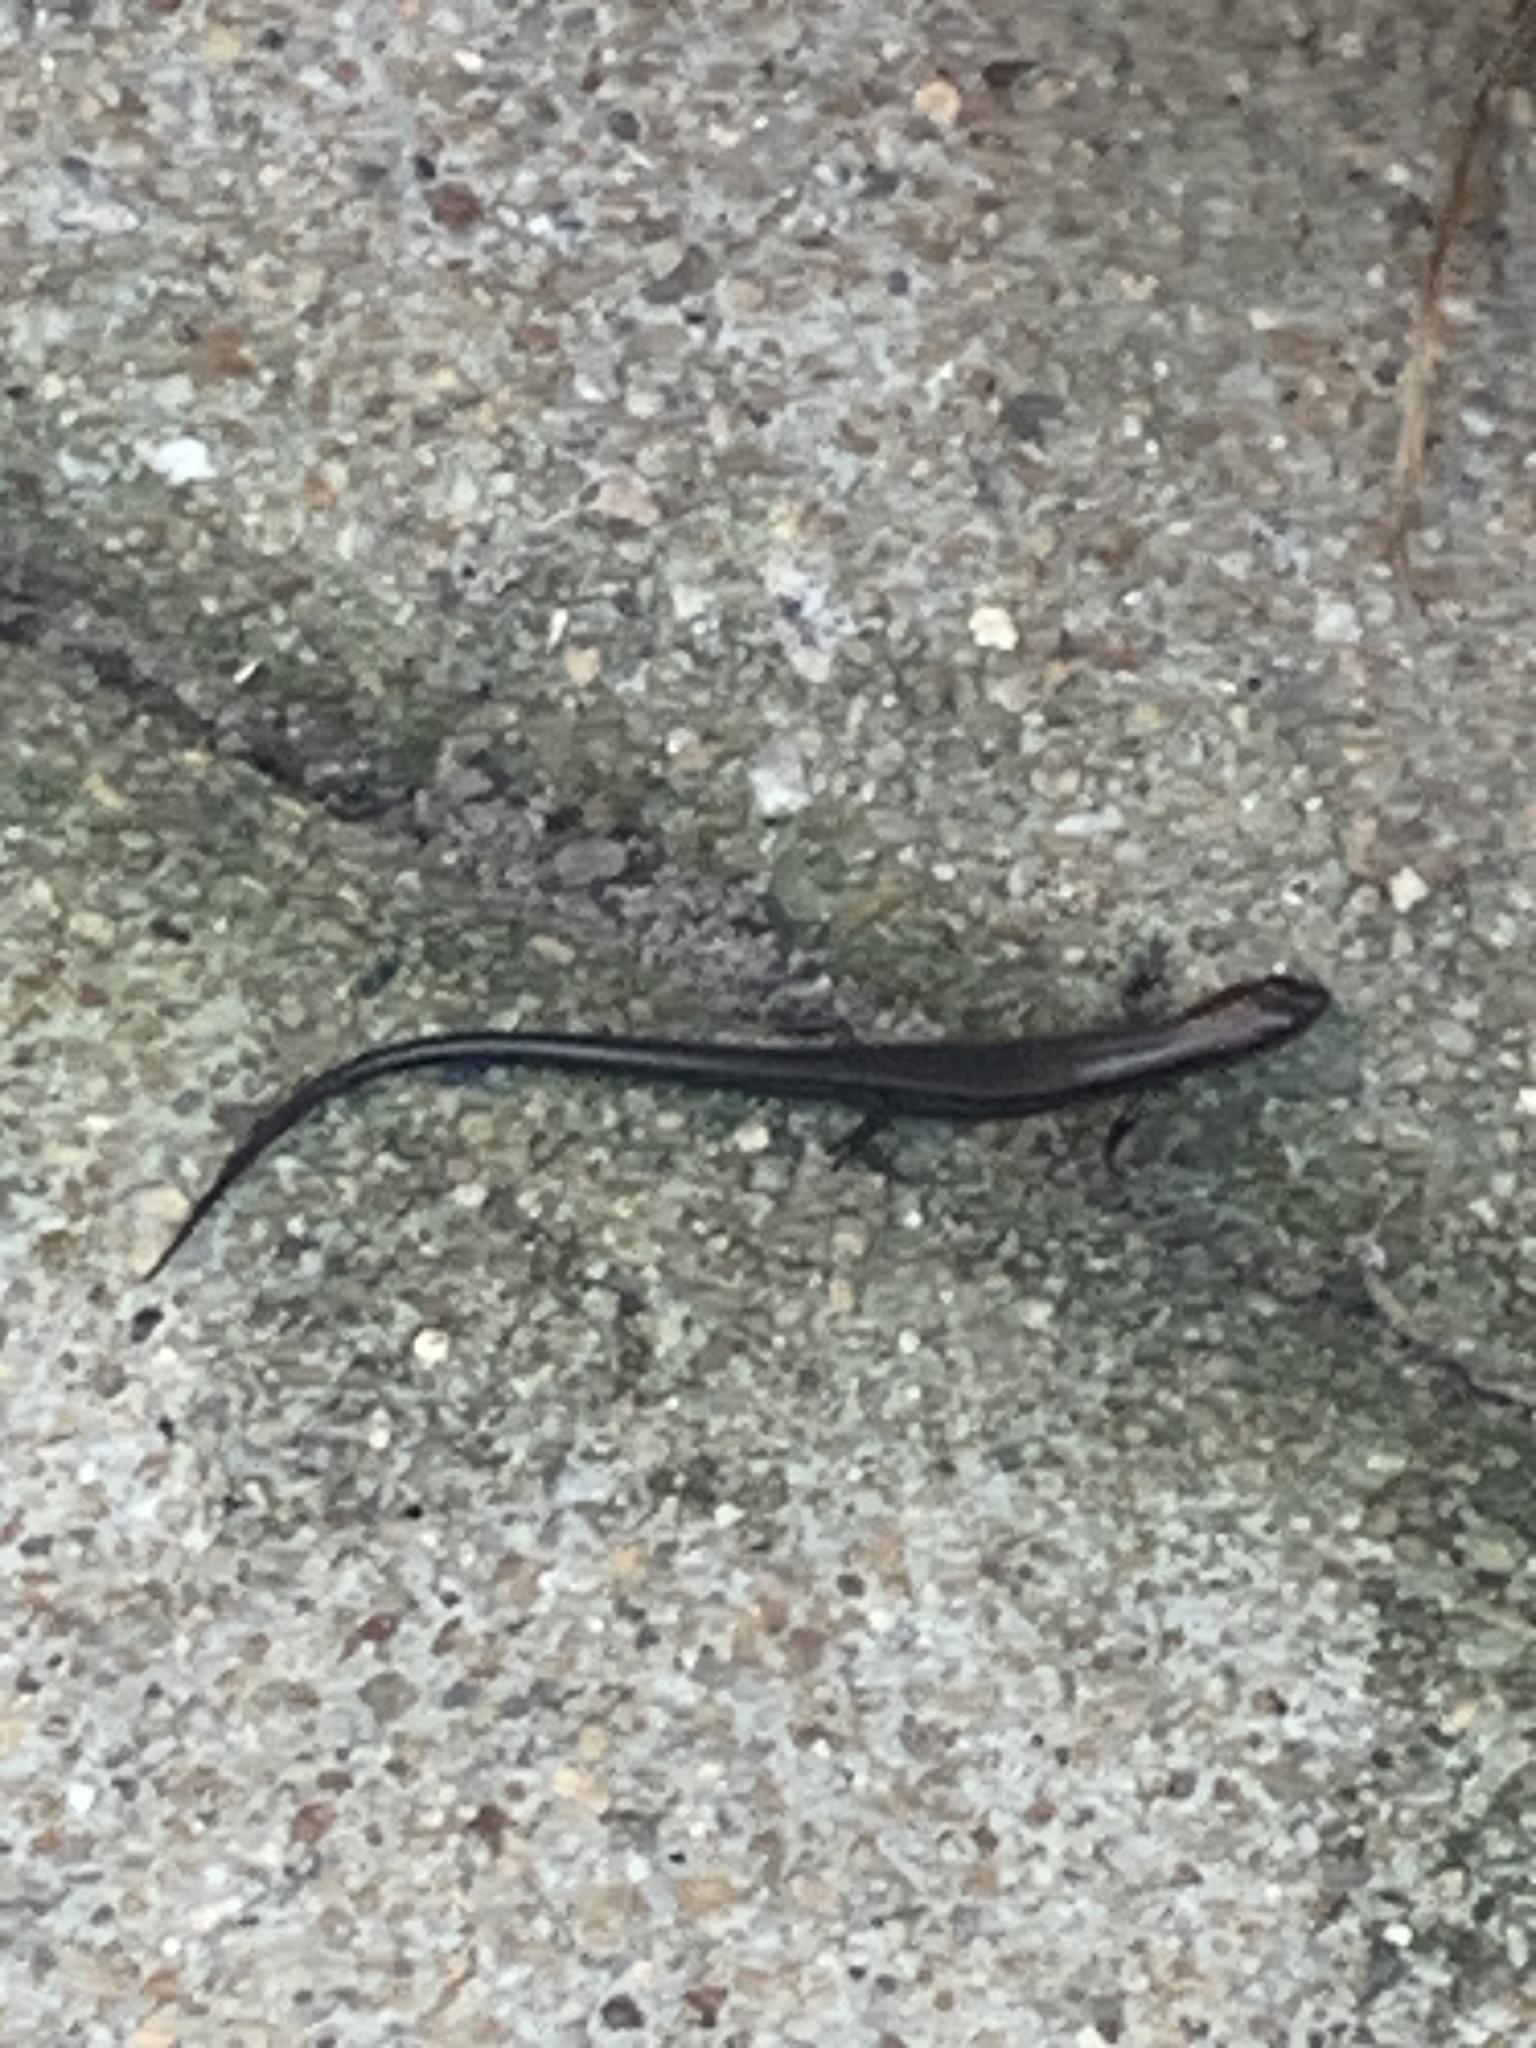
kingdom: Animalia
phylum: Chordata
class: Squamata
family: Scincidae
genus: Scincella
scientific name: Scincella lateralis
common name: Ground skink
